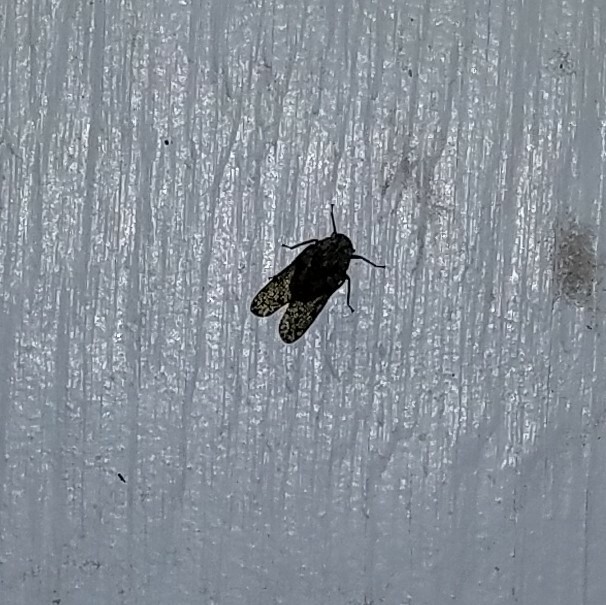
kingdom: Animalia
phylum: Arthropoda
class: Insecta
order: Hemiptera
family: Fulgoridae
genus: Calyptoproctus
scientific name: Calyptoproctus marmoratus
